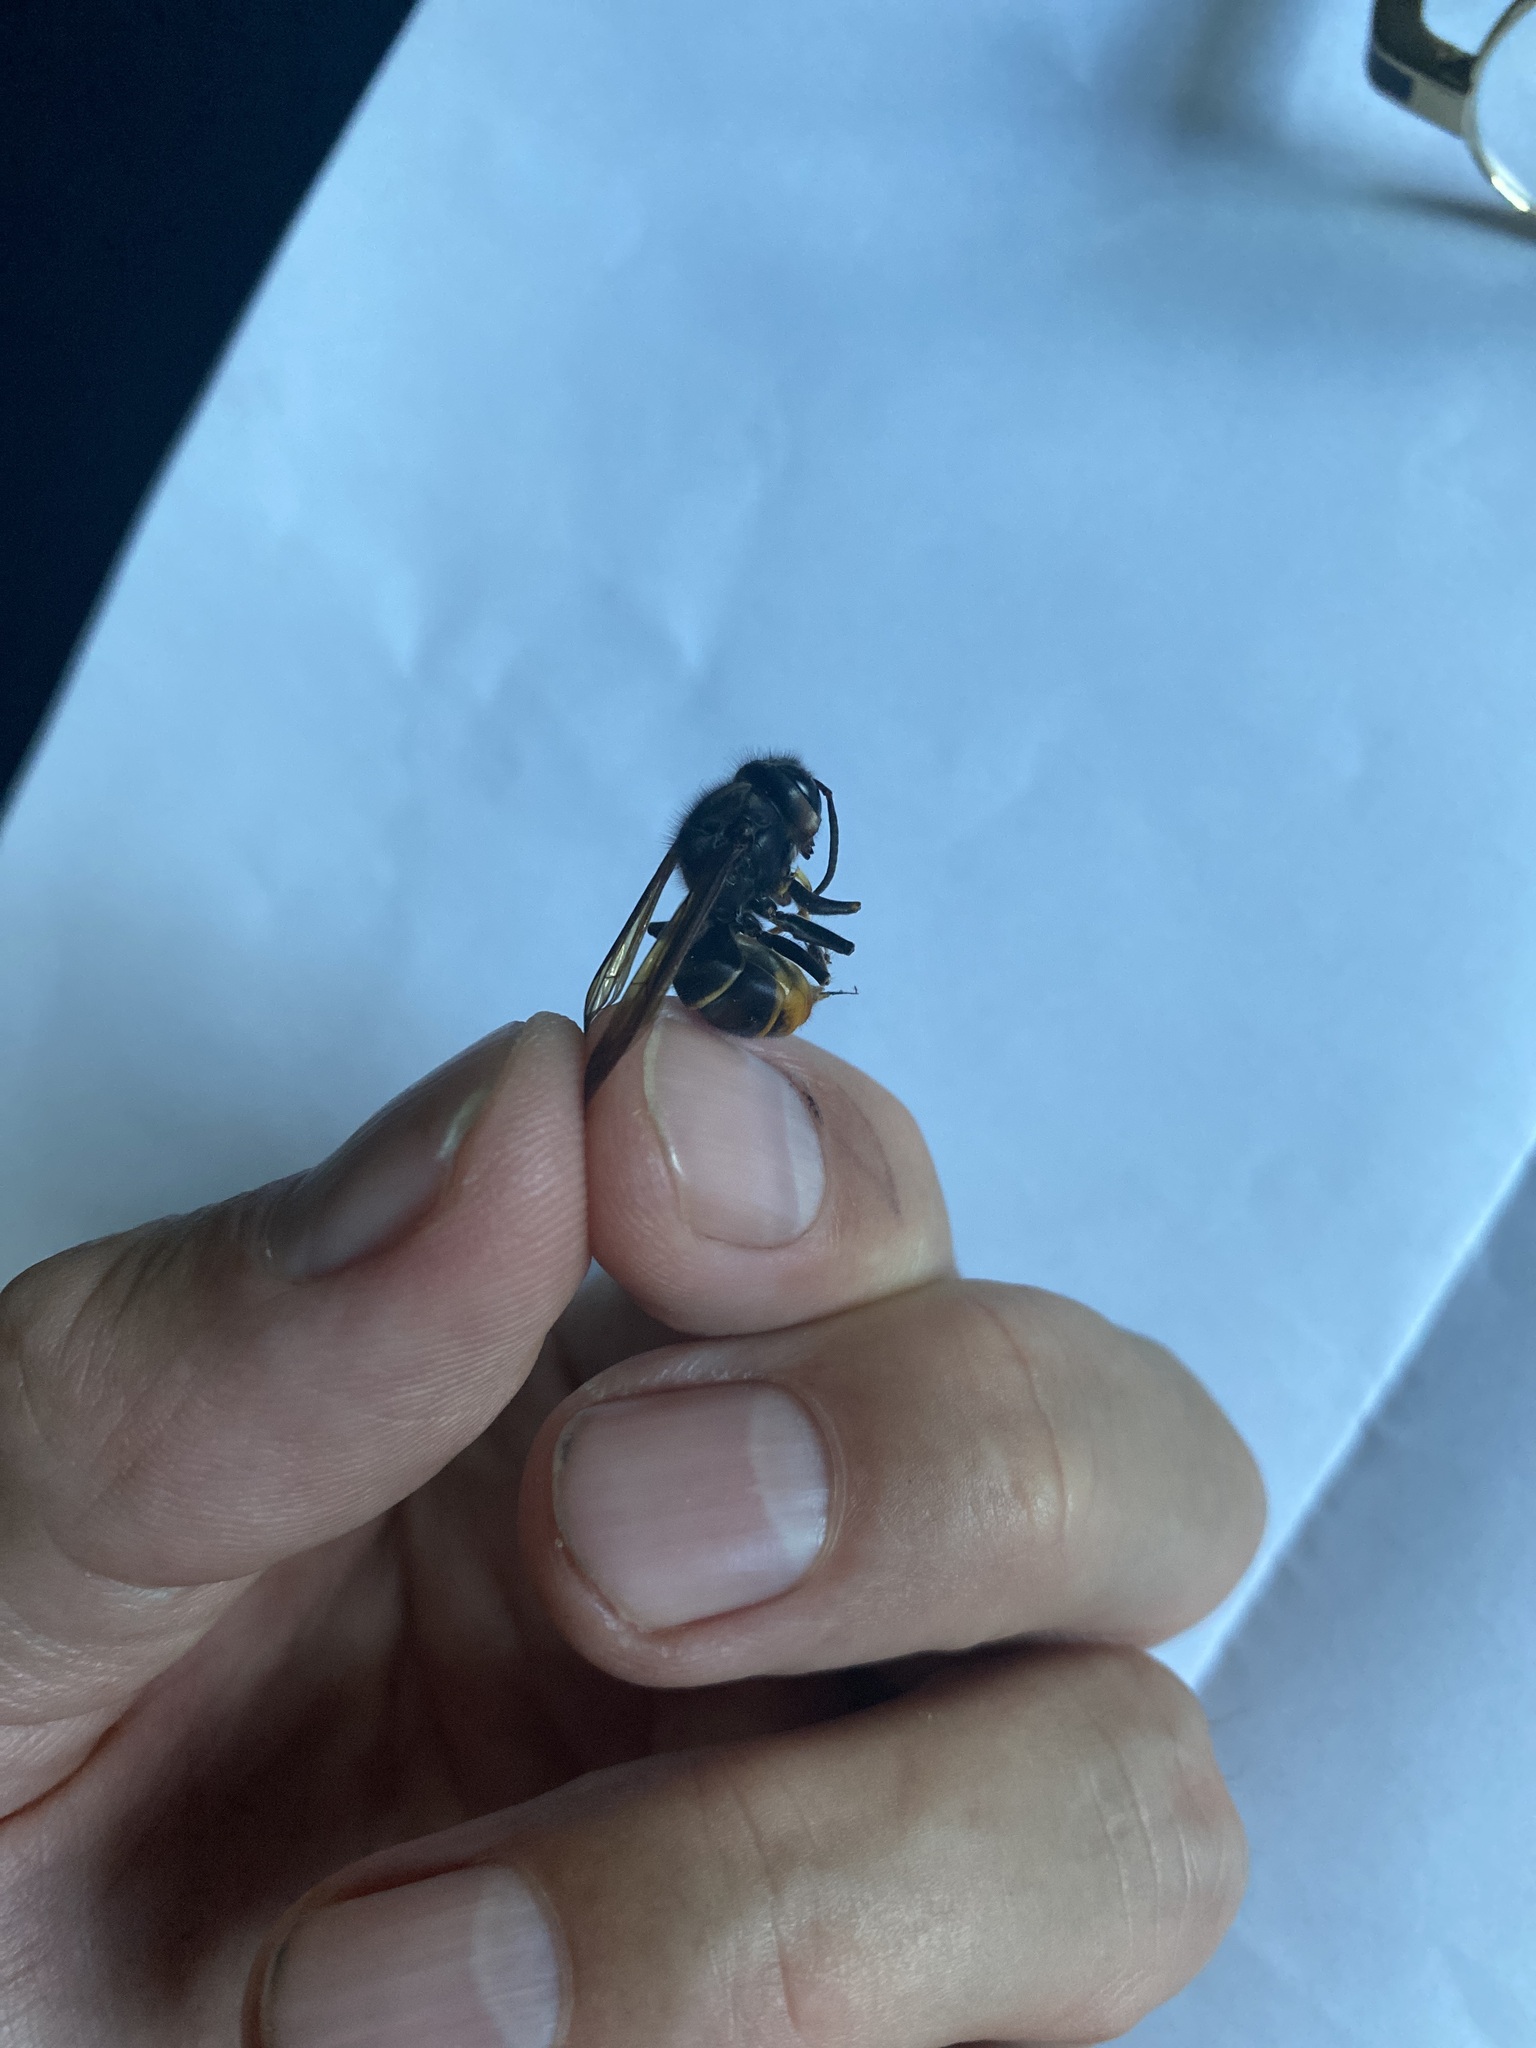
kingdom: Animalia
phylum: Arthropoda
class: Insecta
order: Hymenoptera
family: Vespidae
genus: Vespa
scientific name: Vespa velutina
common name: Asian hornet
